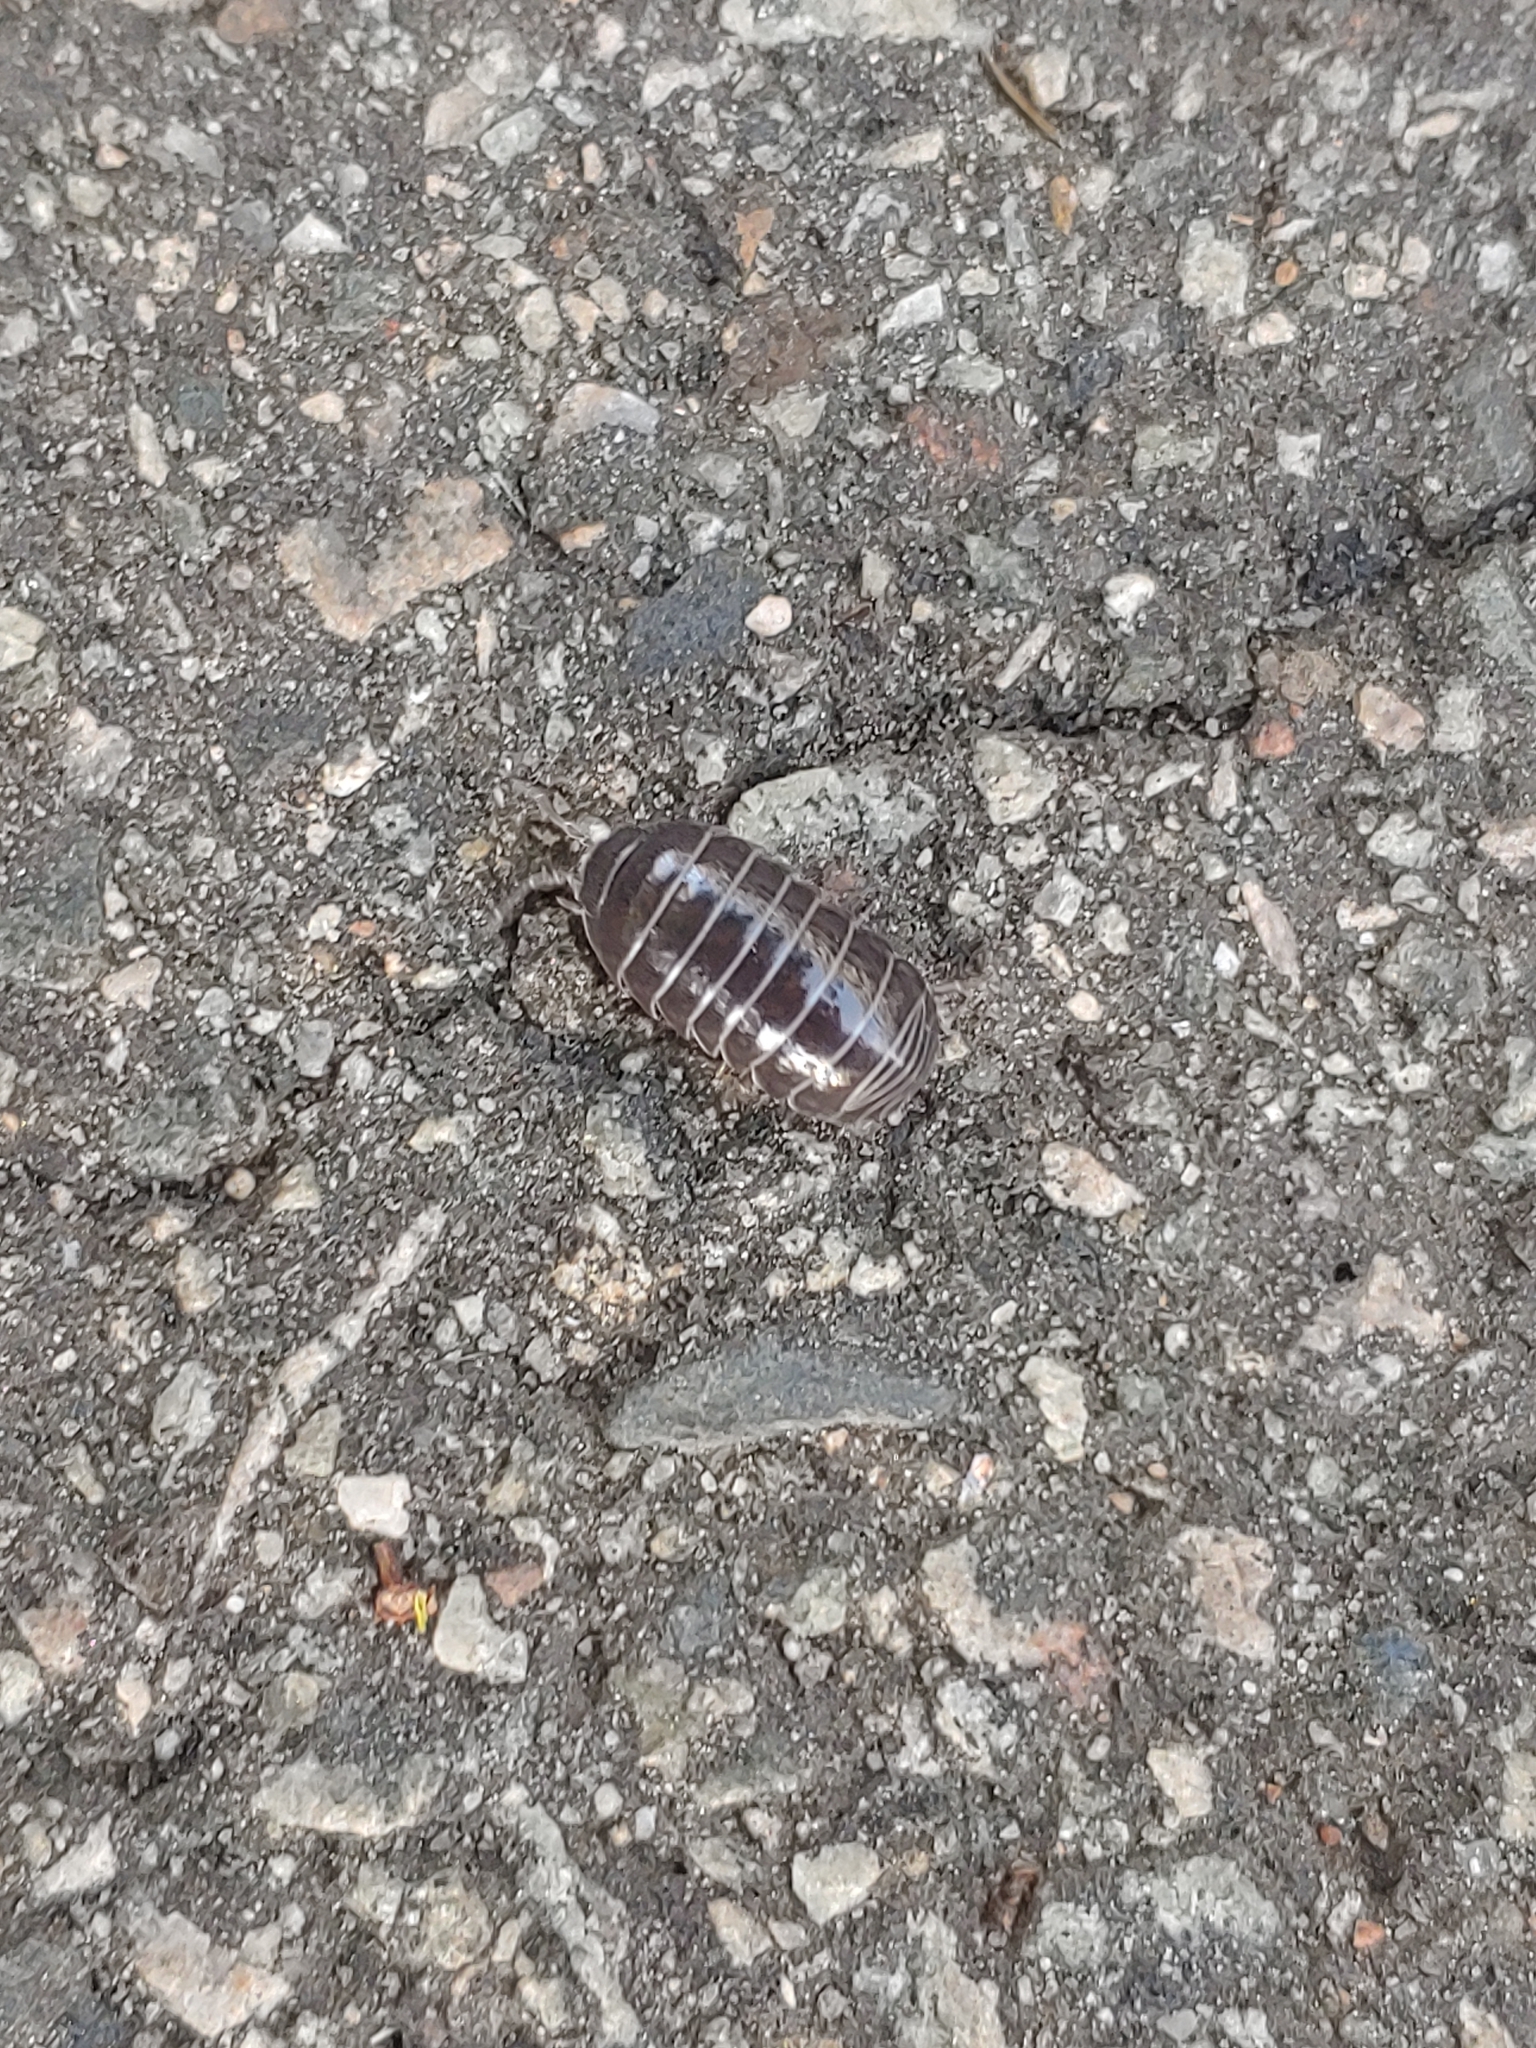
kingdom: Animalia
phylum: Arthropoda
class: Malacostraca
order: Isopoda
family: Armadillidiidae
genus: Armadillidium
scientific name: Armadillidium vulgare
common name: Common pill woodlouse
